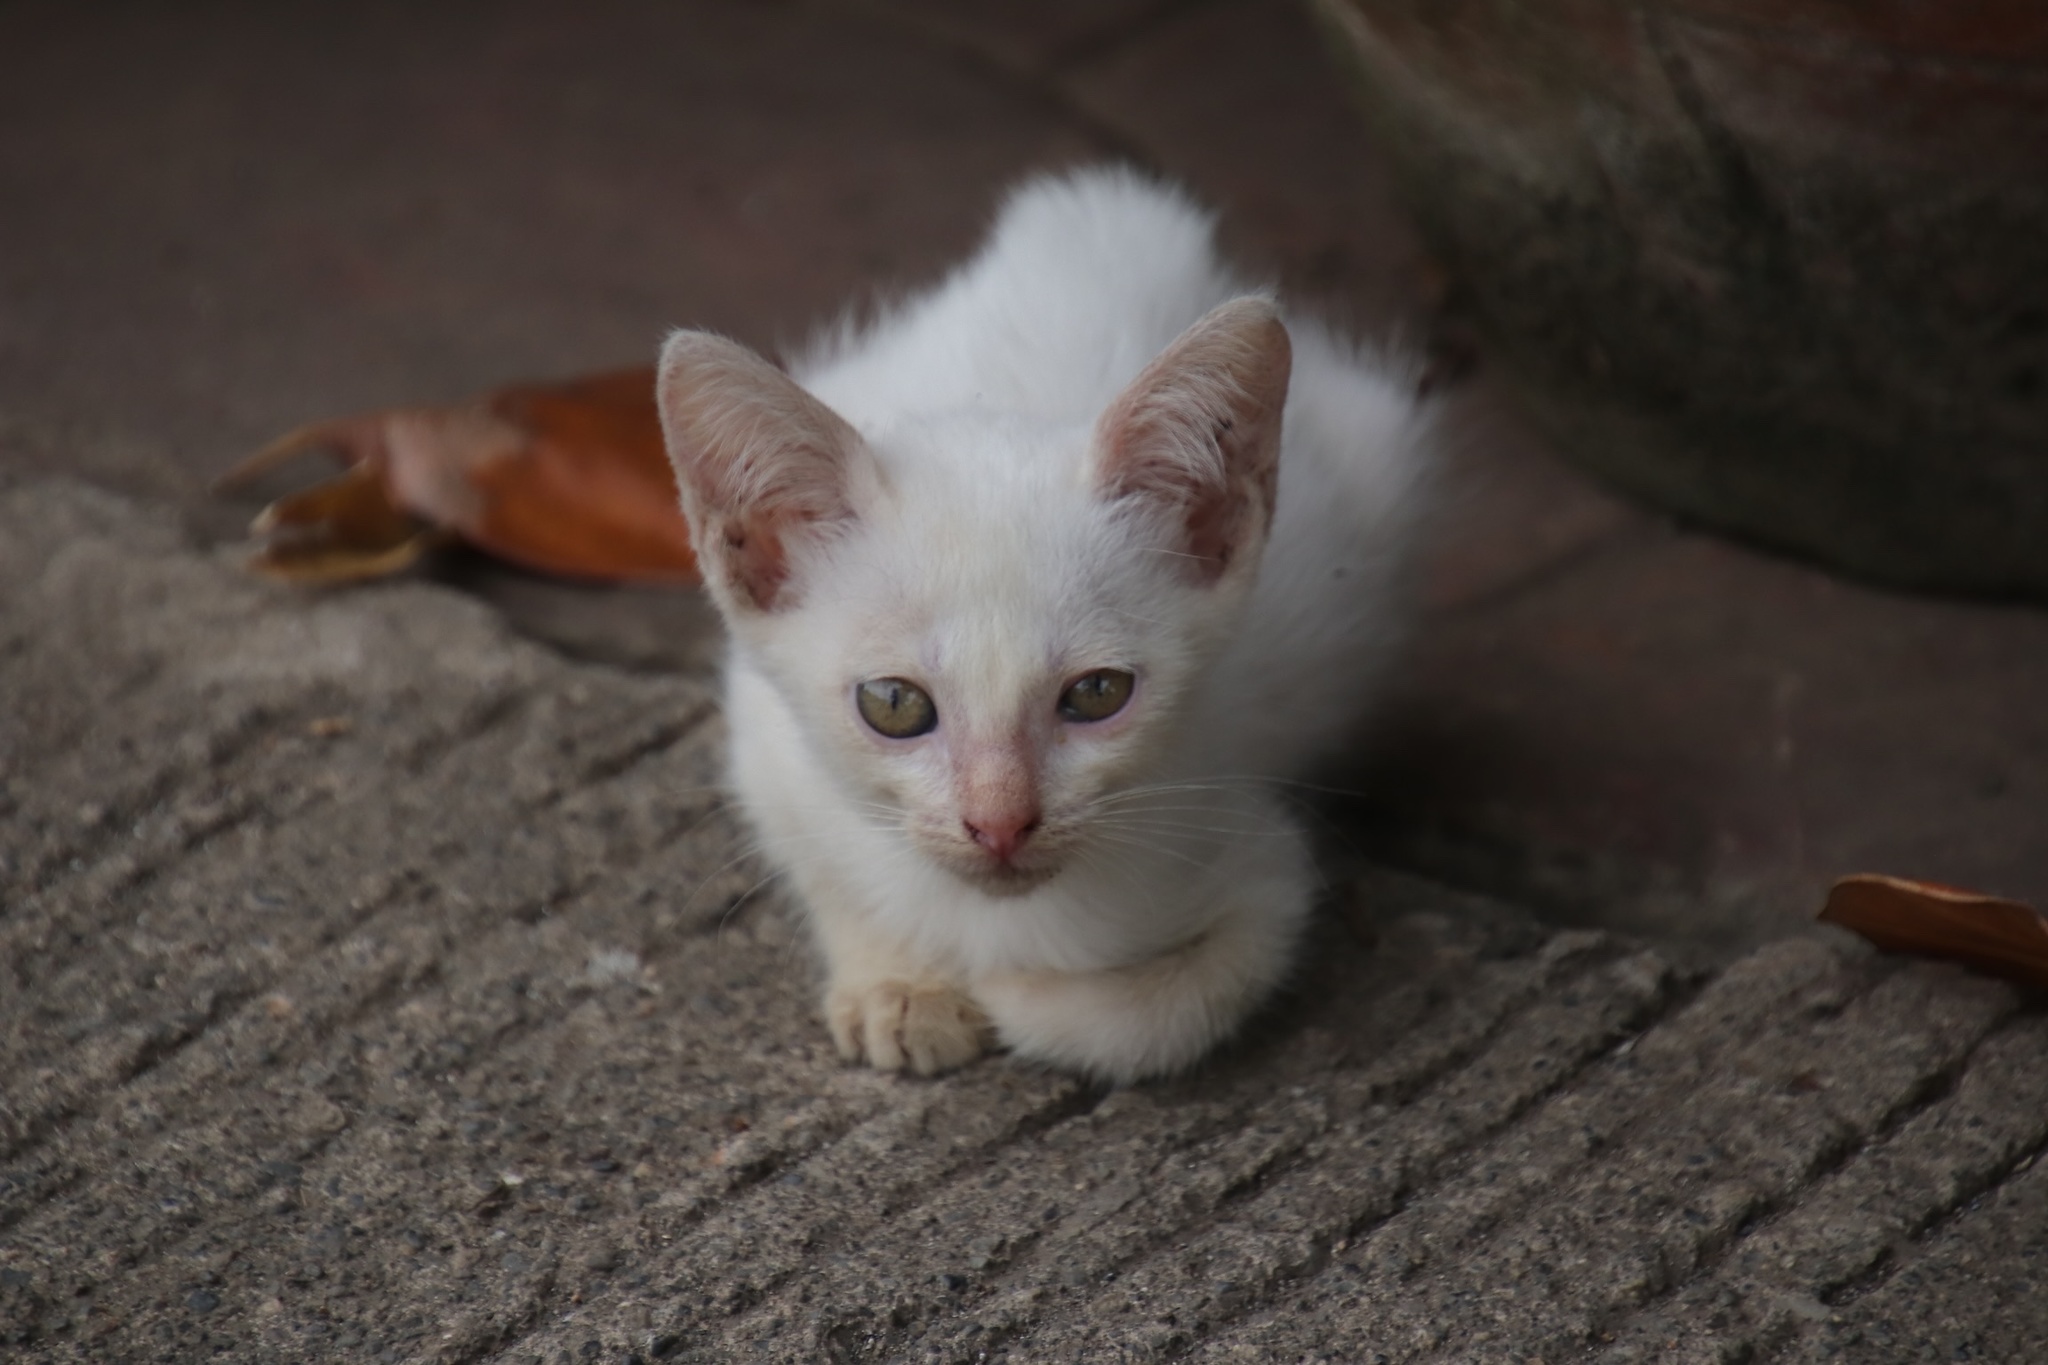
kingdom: Animalia
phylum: Chordata
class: Mammalia
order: Carnivora
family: Felidae
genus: Felis
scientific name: Felis catus
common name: Domestic cat
